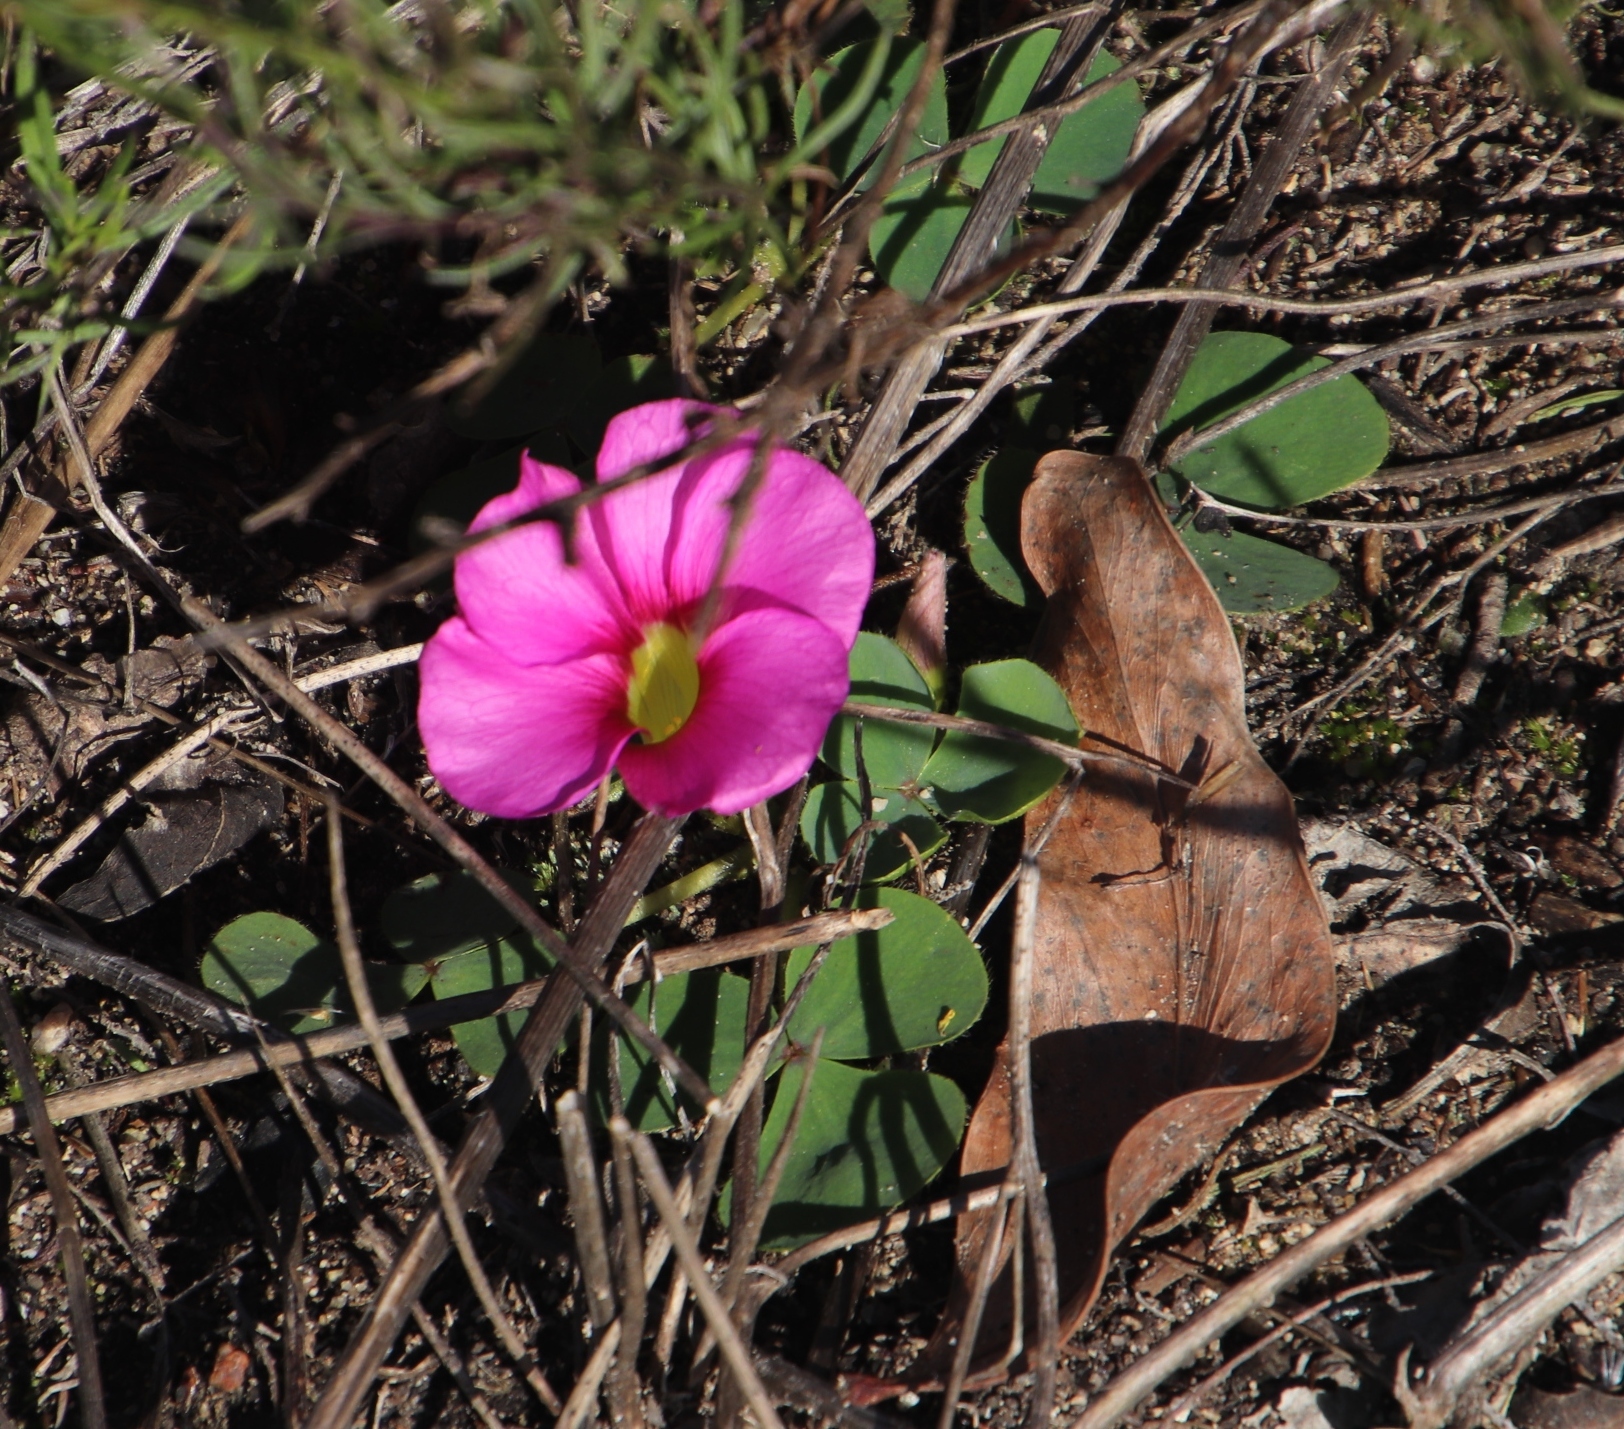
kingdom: Plantae
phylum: Tracheophyta
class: Magnoliopsida
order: Oxalidales
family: Oxalidaceae
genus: Oxalis
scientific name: Oxalis purpurea
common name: Purple woodsorrel
